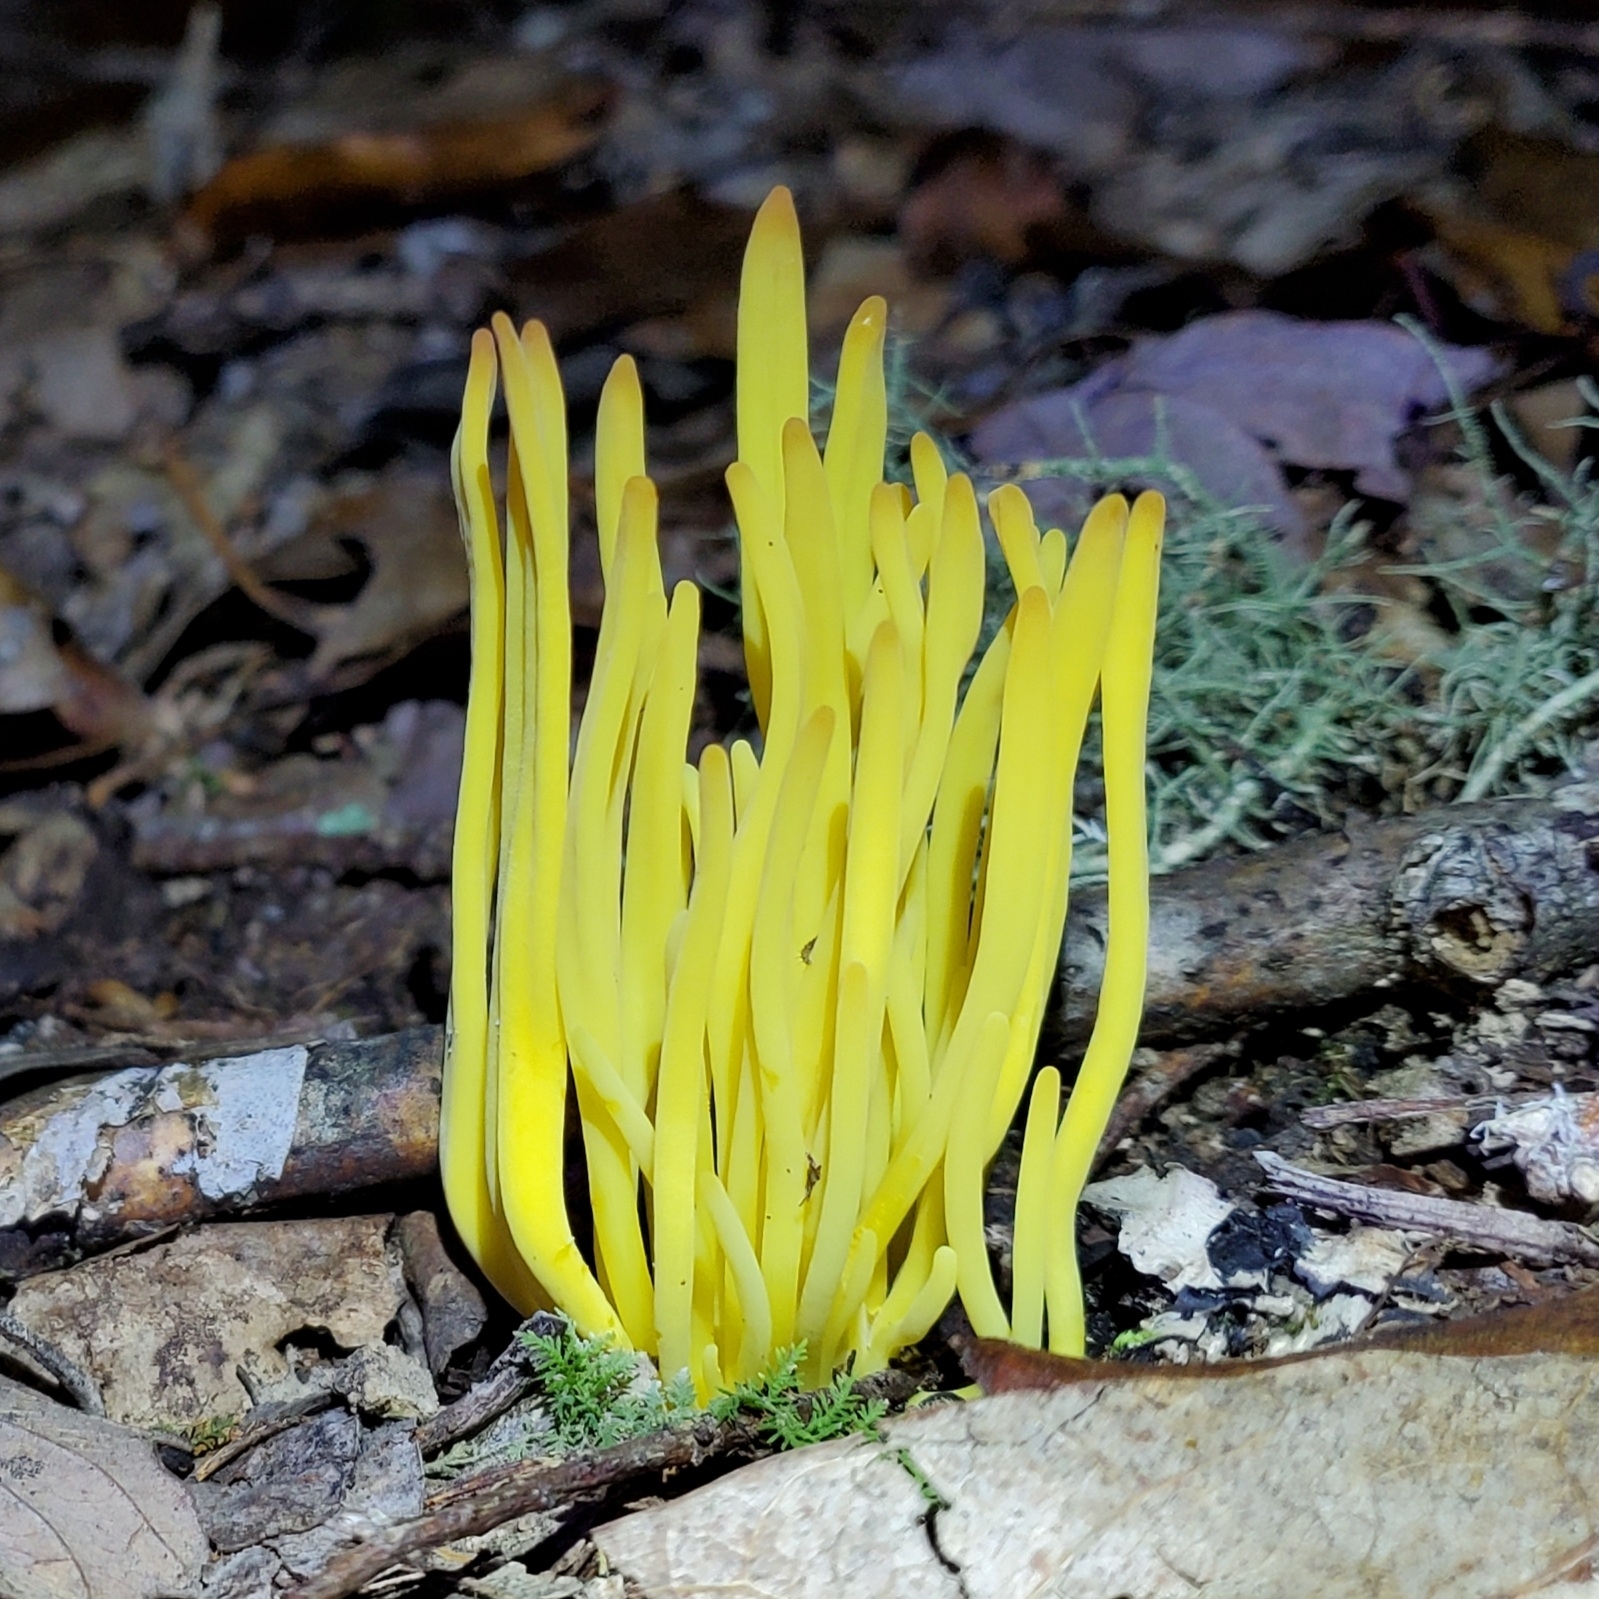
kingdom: Fungi
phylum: Basidiomycota
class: Agaricomycetes
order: Agaricales
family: Clavariaceae
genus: Clavulinopsis
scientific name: Clavulinopsis fusiformis
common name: Golden spindles
